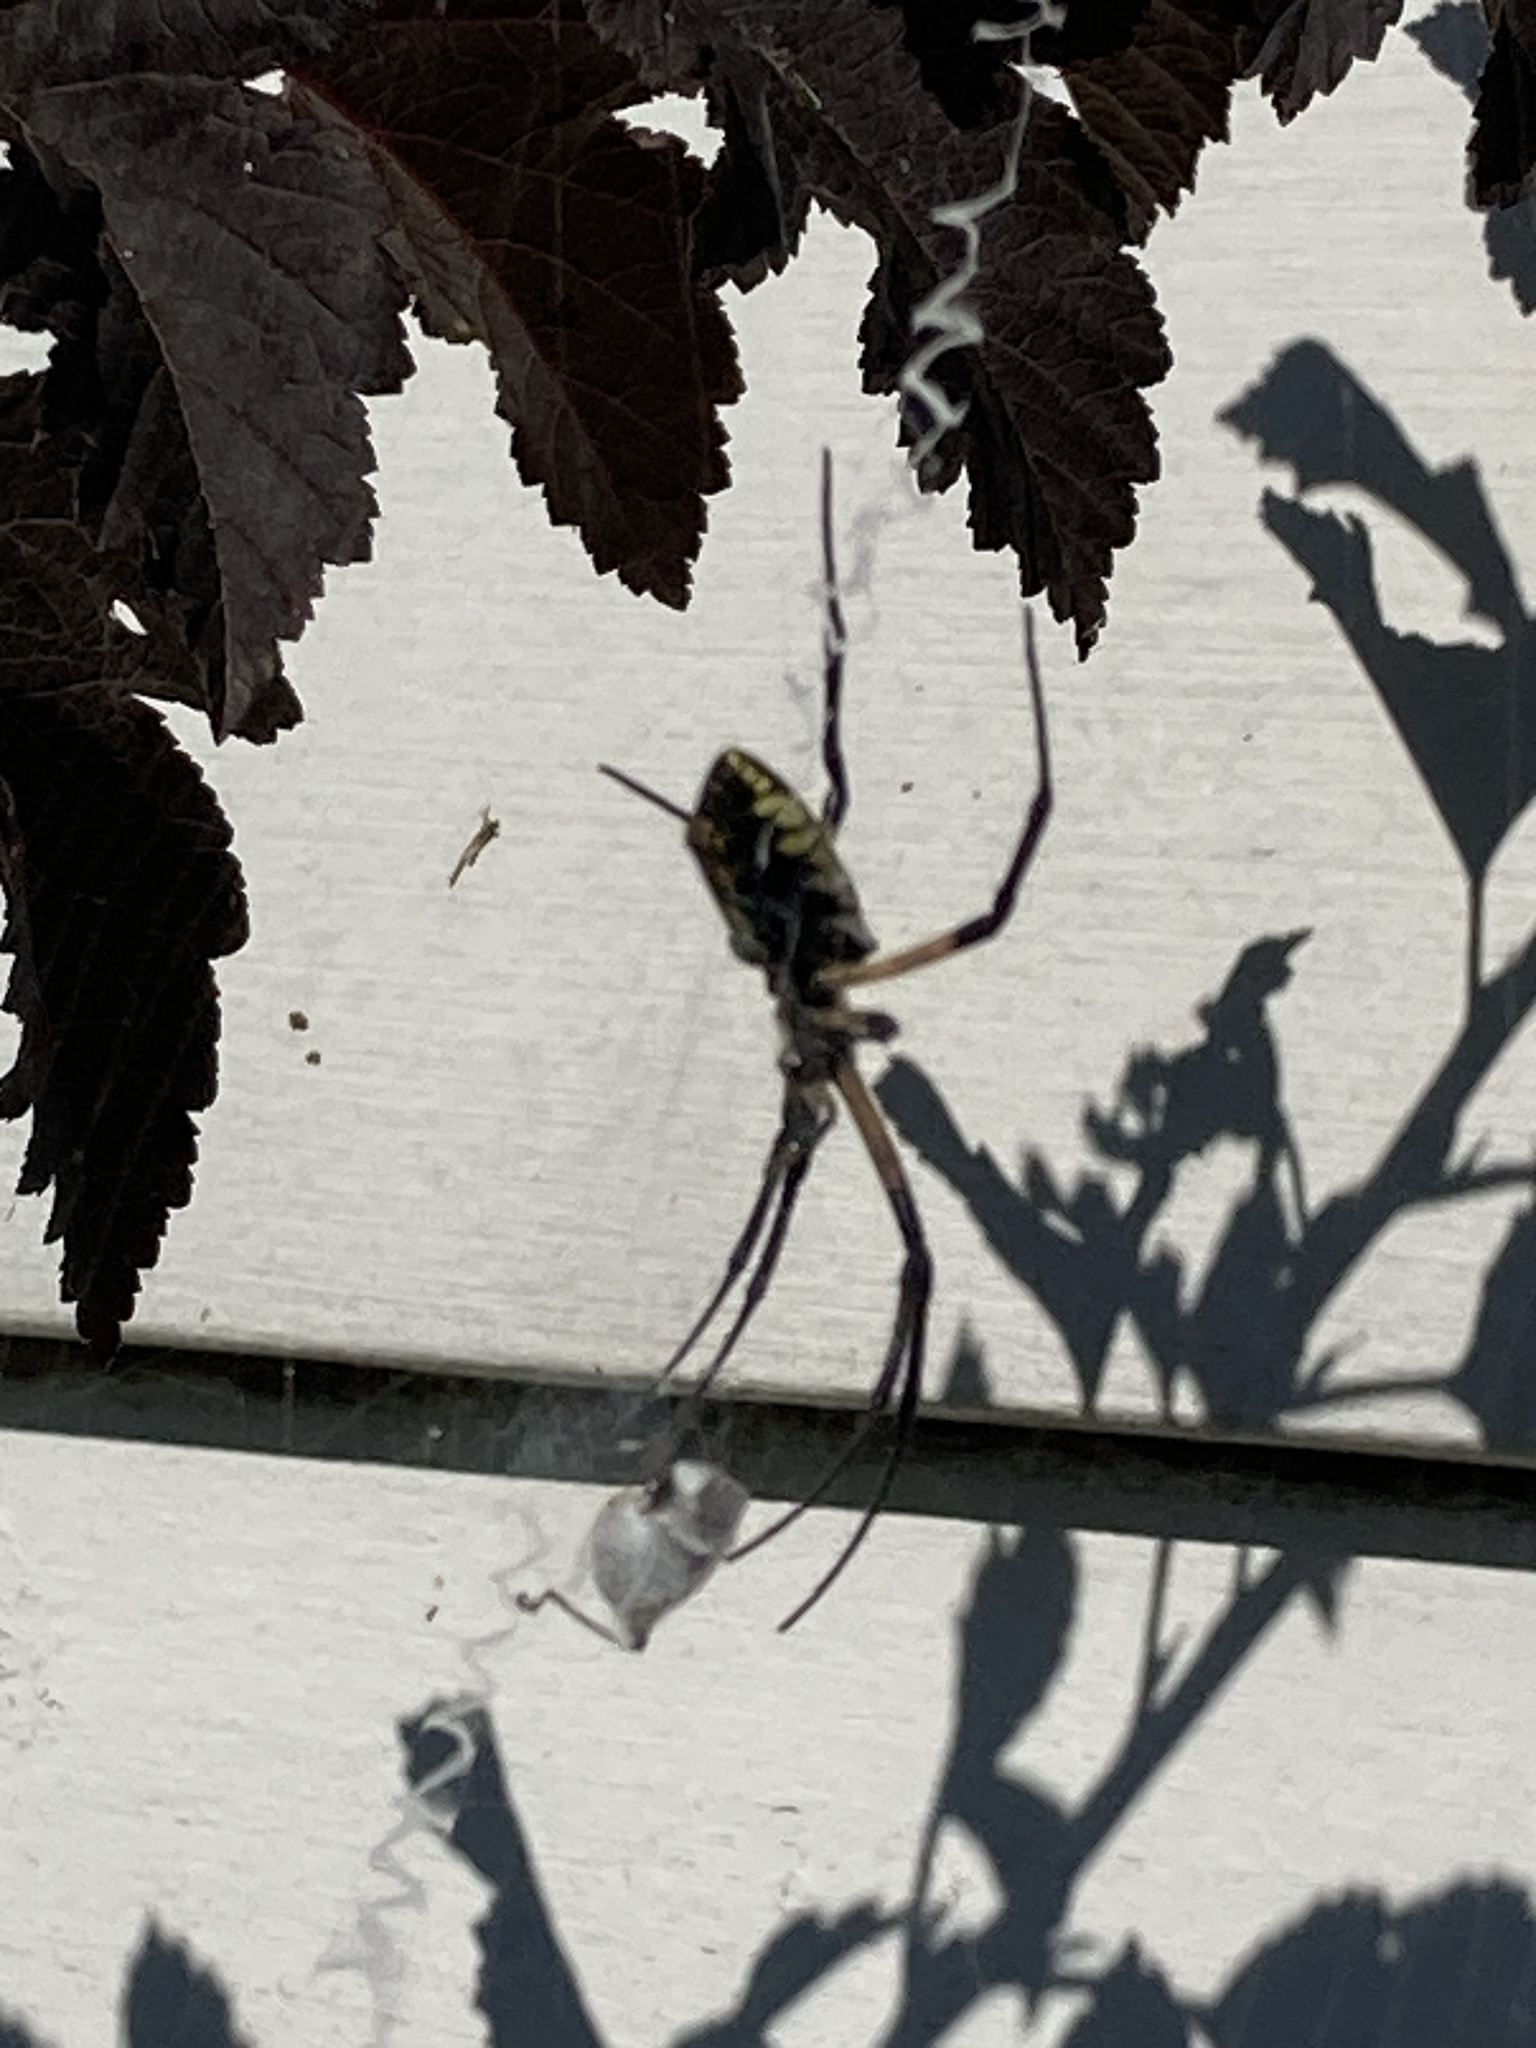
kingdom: Animalia
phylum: Arthropoda
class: Arachnida
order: Araneae
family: Araneidae
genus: Argiope
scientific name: Argiope aurantia
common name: Orb weavers
